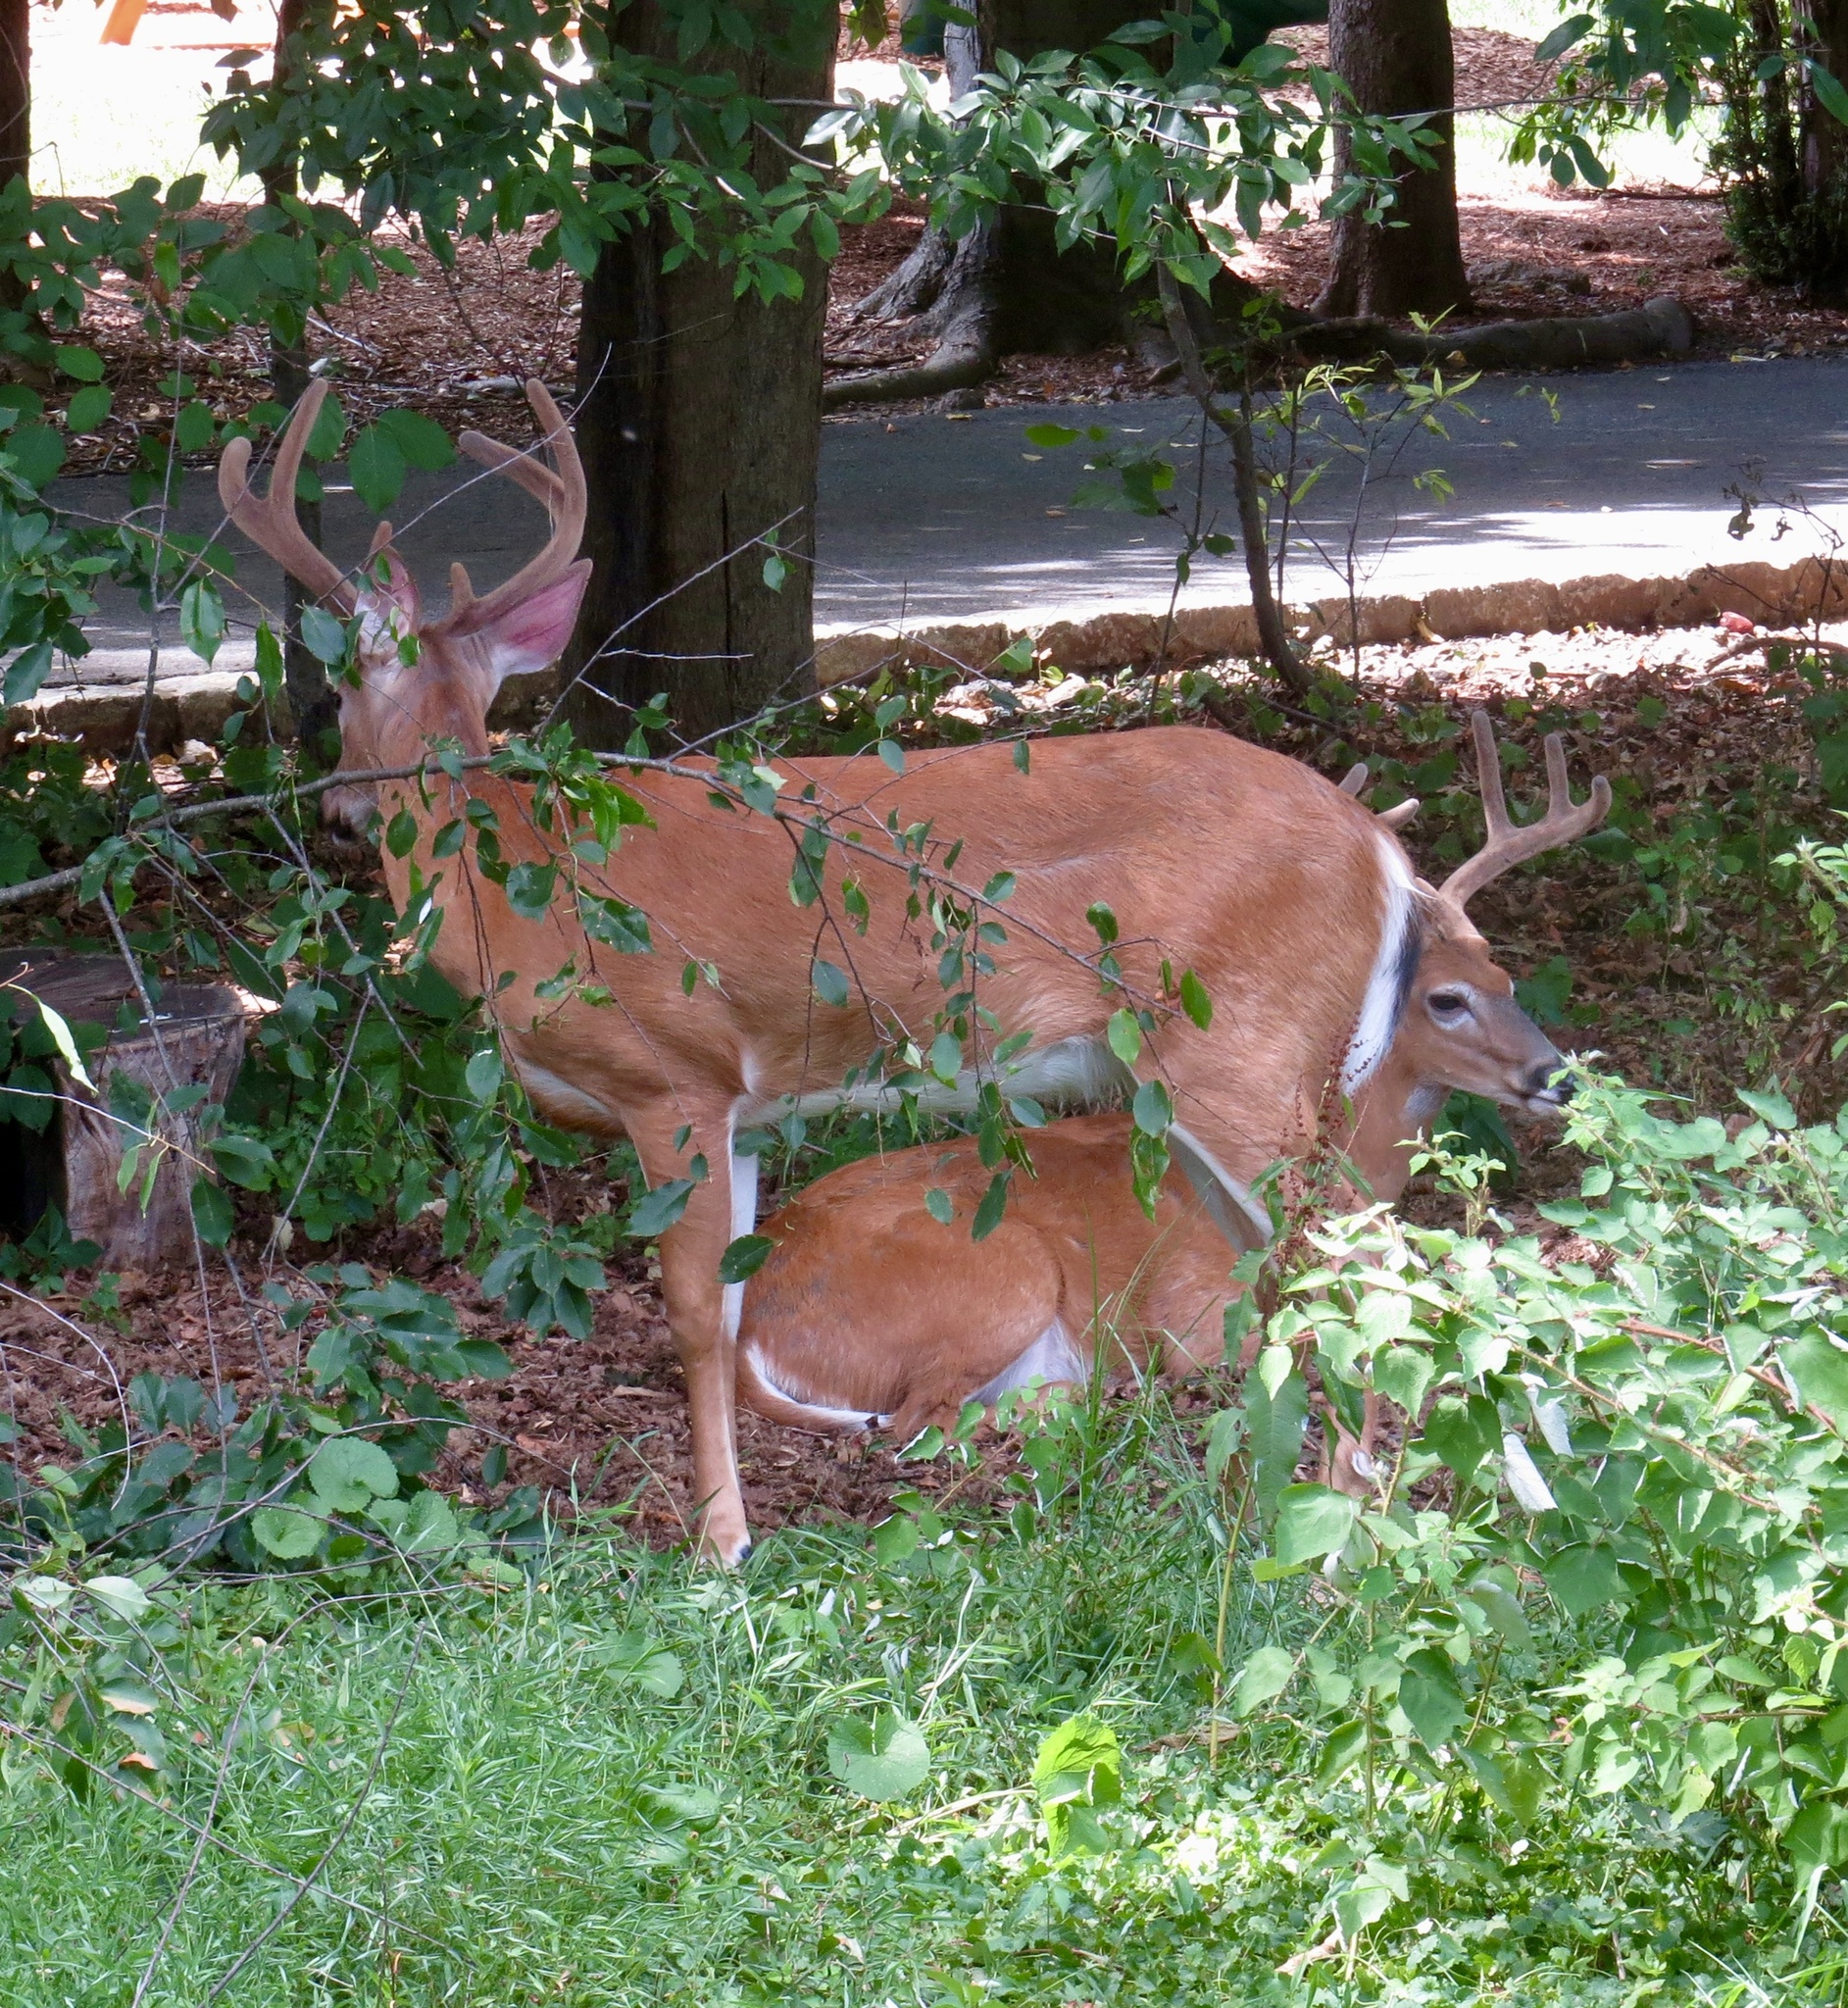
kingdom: Animalia
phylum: Chordata
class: Mammalia
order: Artiodactyla
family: Cervidae
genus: Odocoileus
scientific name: Odocoileus virginianus
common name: White-tailed deer
